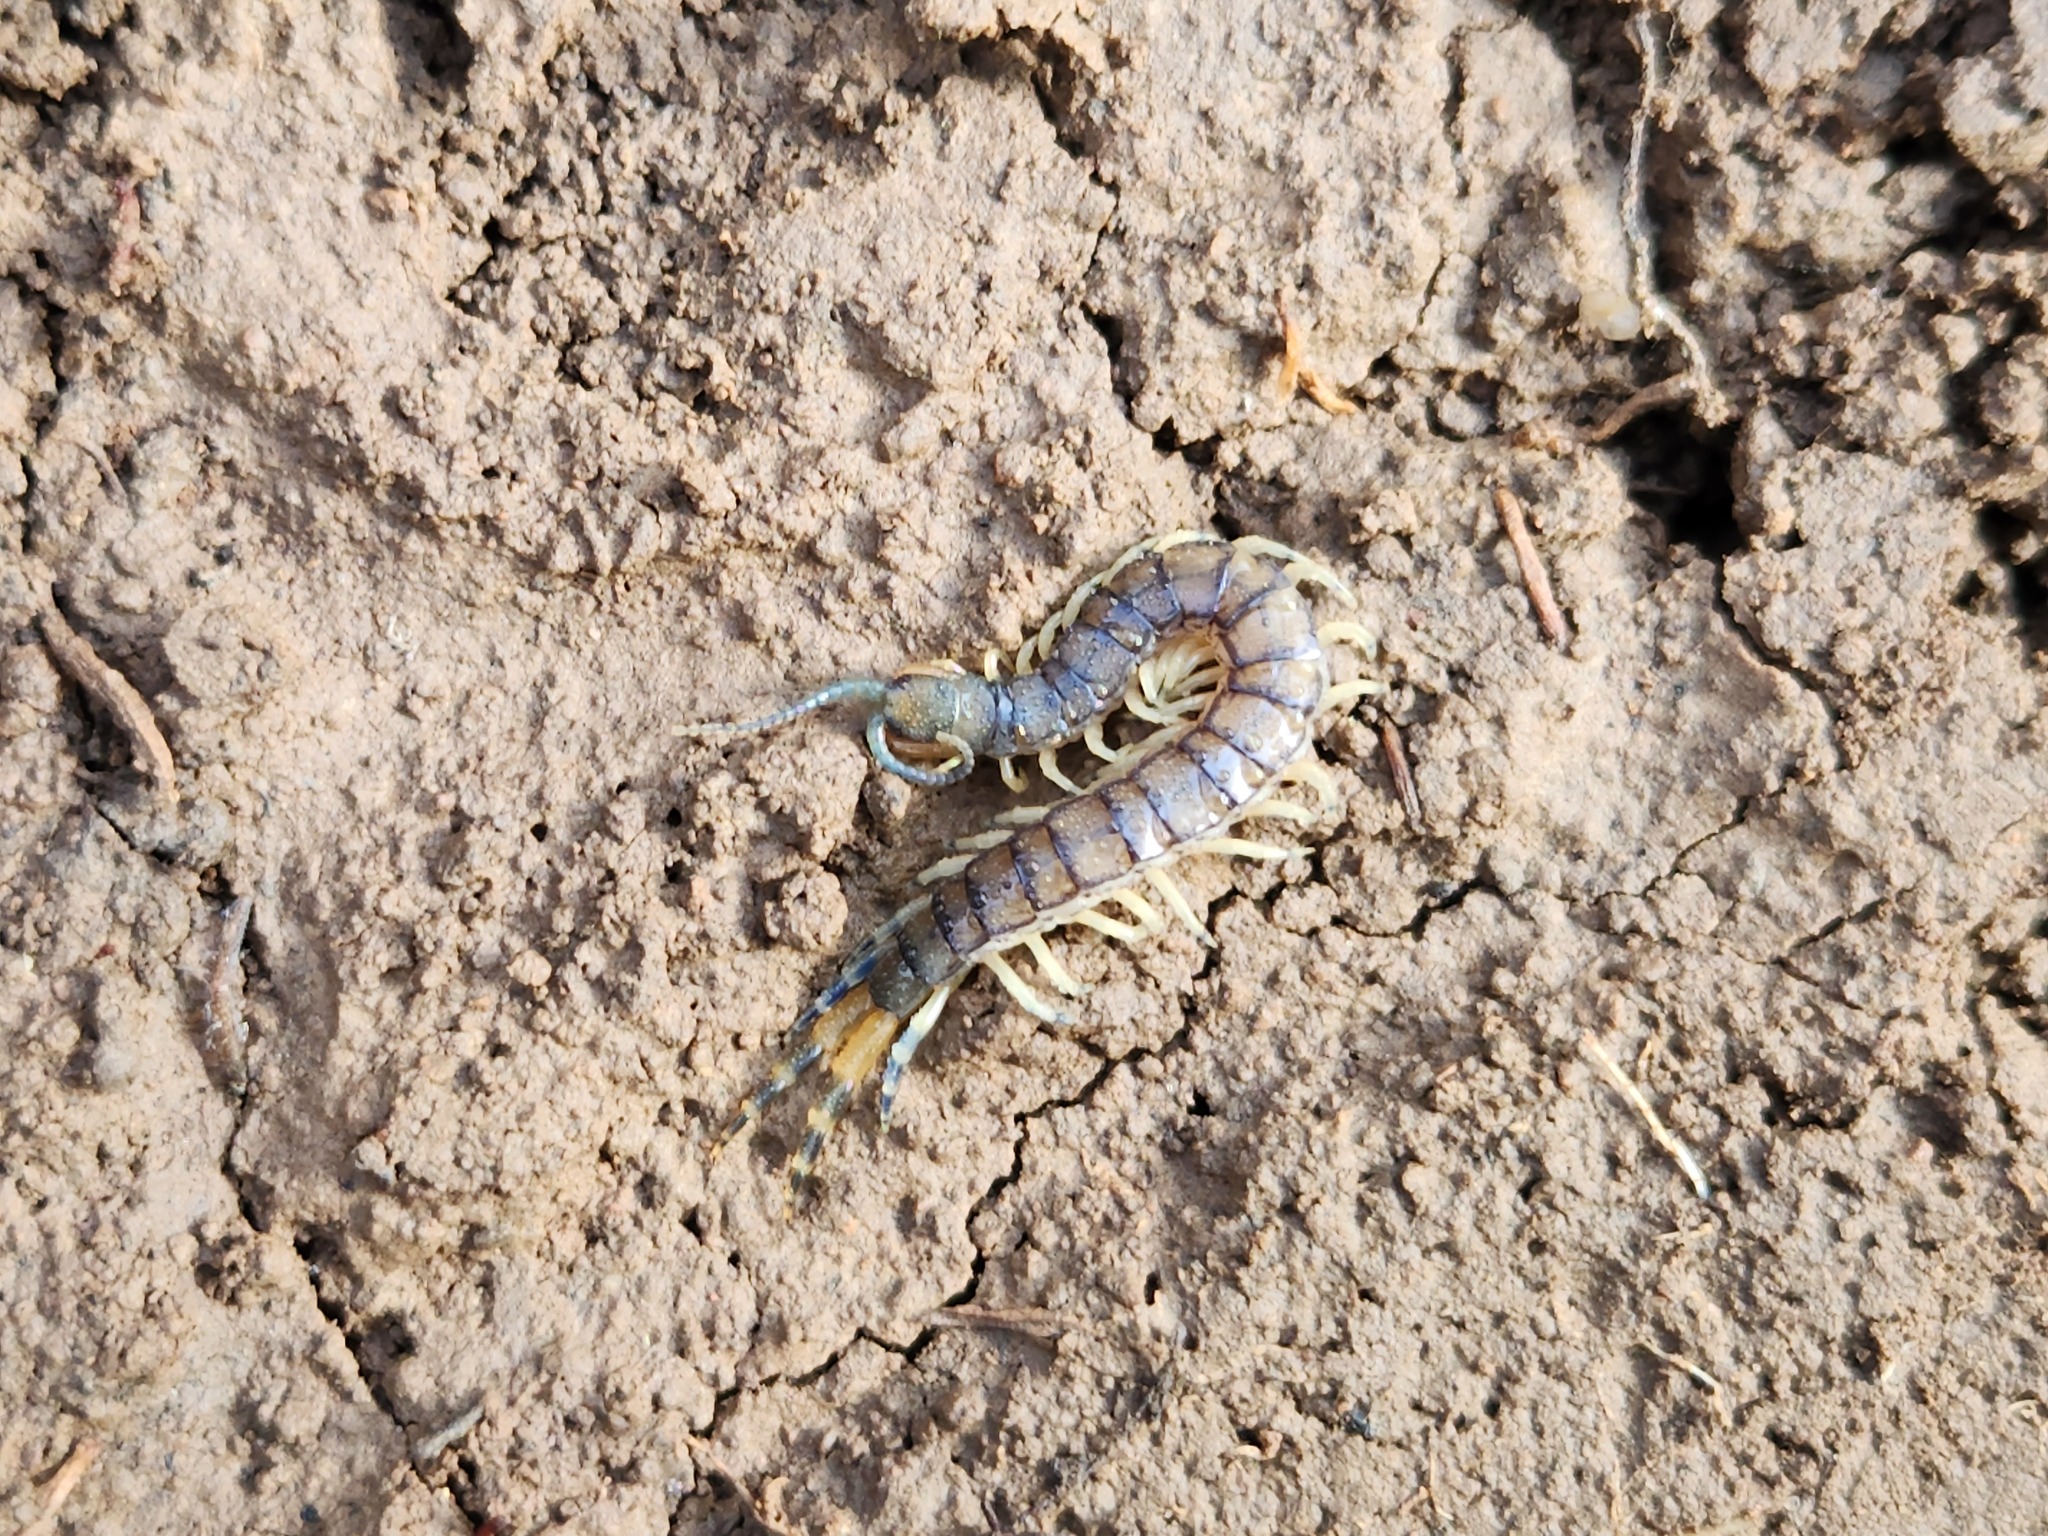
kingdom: Animalia
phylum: Arthropoda
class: Chilopoda
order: Scolopendromorpha
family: Scolopendridae
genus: Hemiscolopendra
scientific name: Hemiscolopendra marginata
